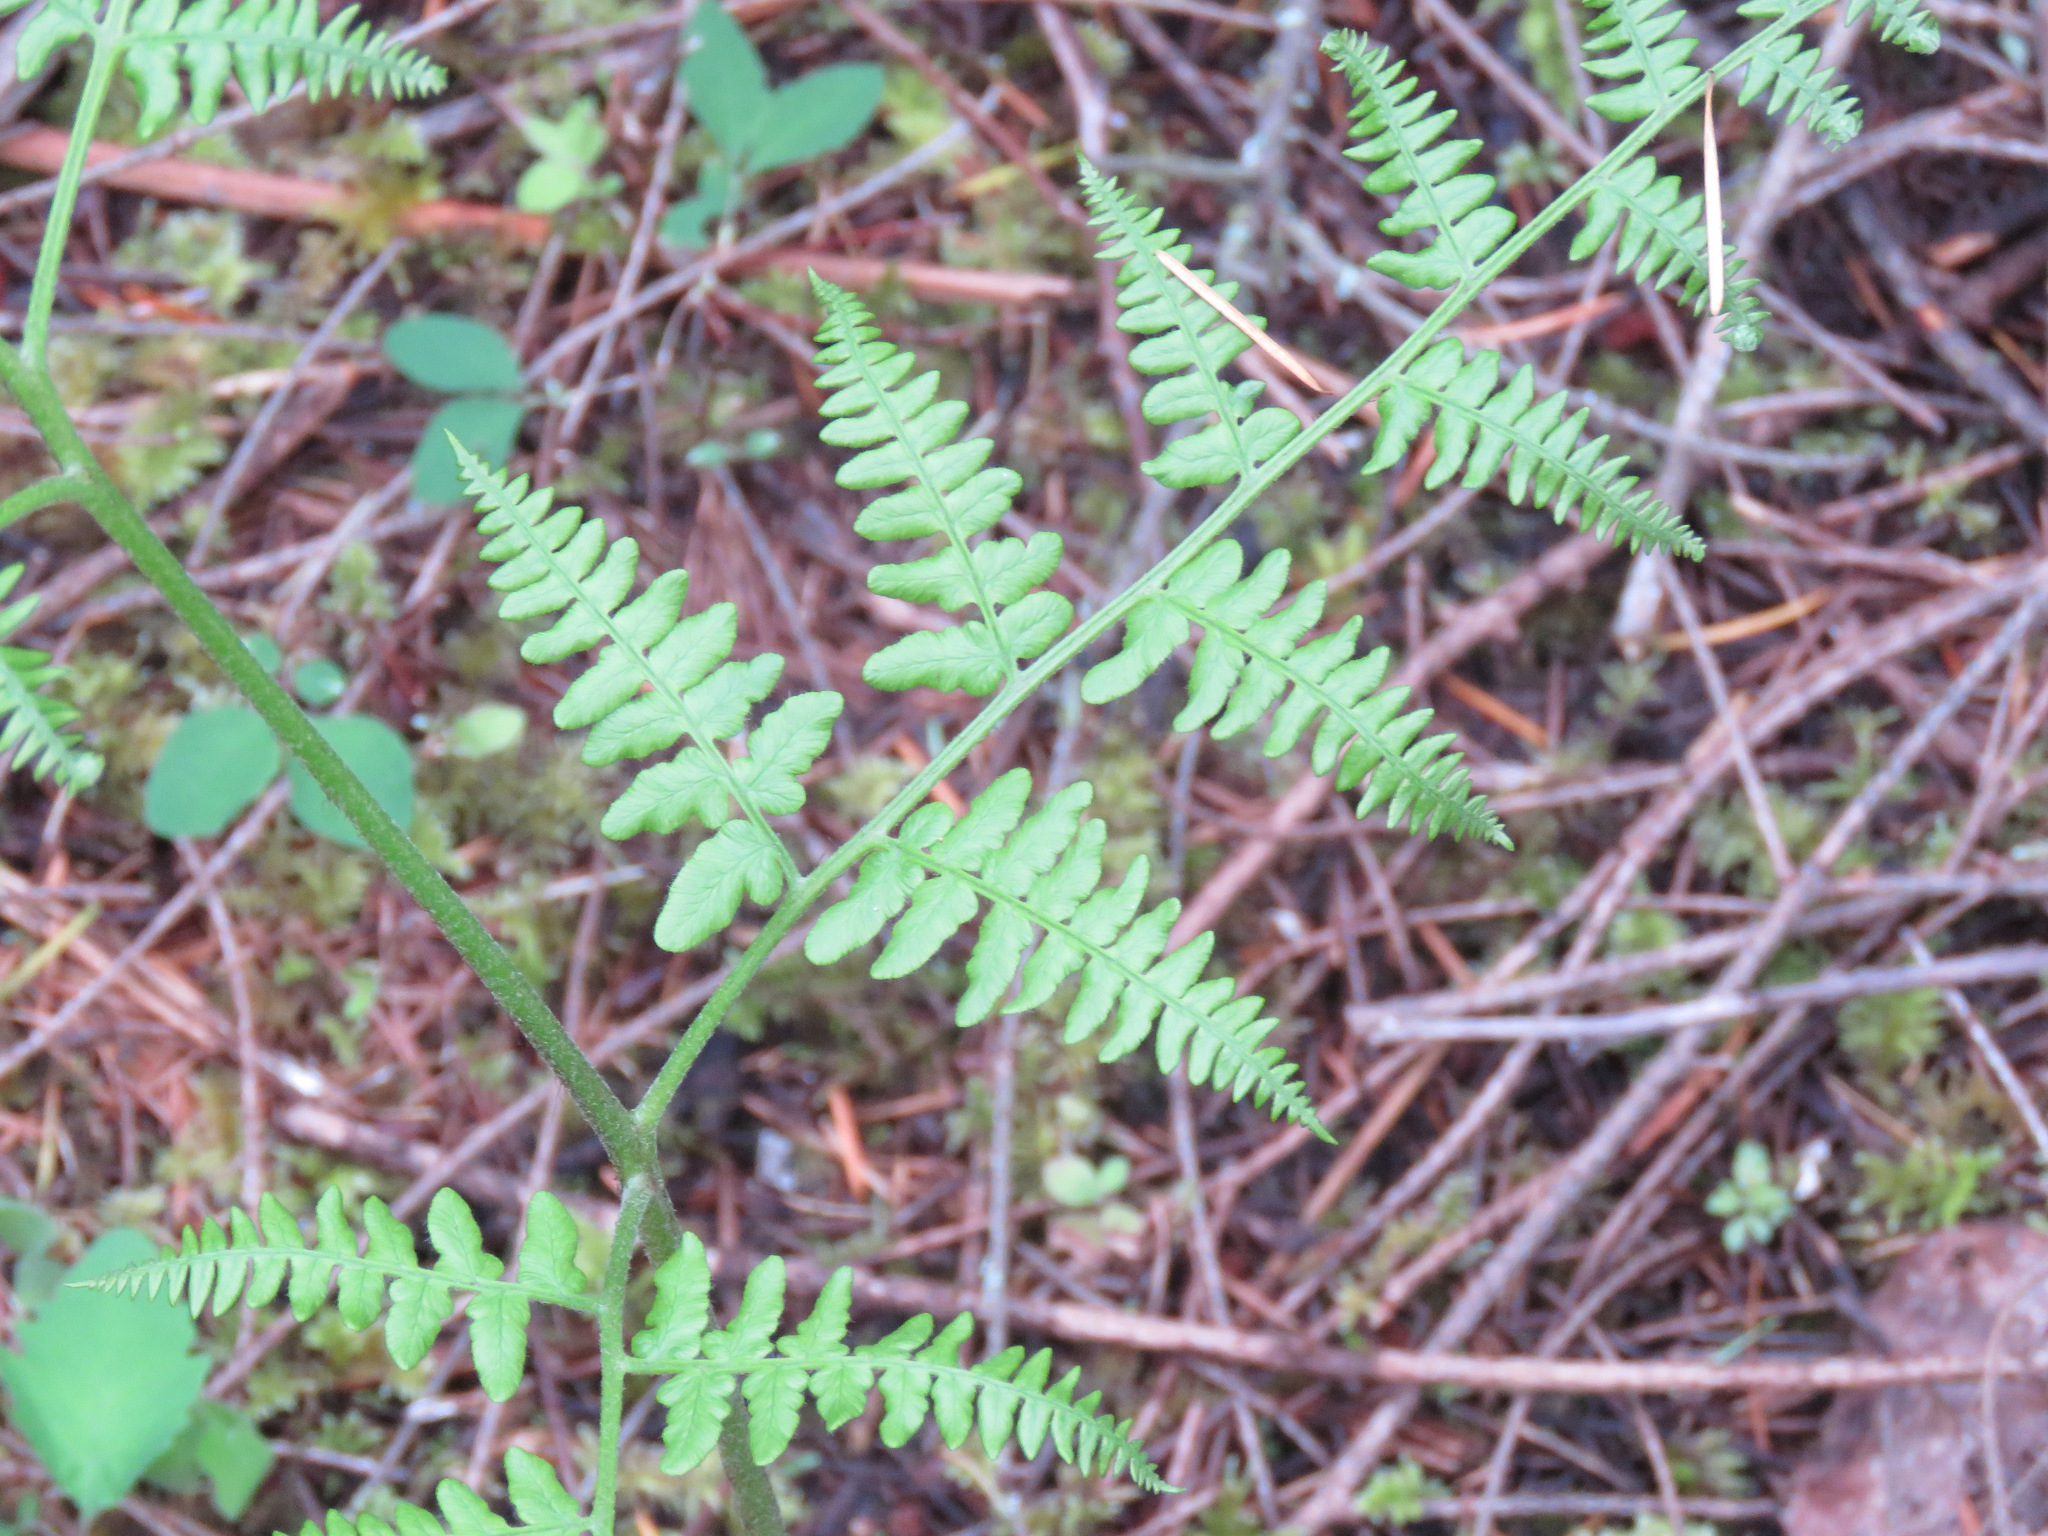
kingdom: Plantae
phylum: Tracheophyta
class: Polypodiopsida
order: Polypodiales
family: Dennstaedtiaceae
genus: Pteridium
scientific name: Pteridium aquilinum
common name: Bracken
